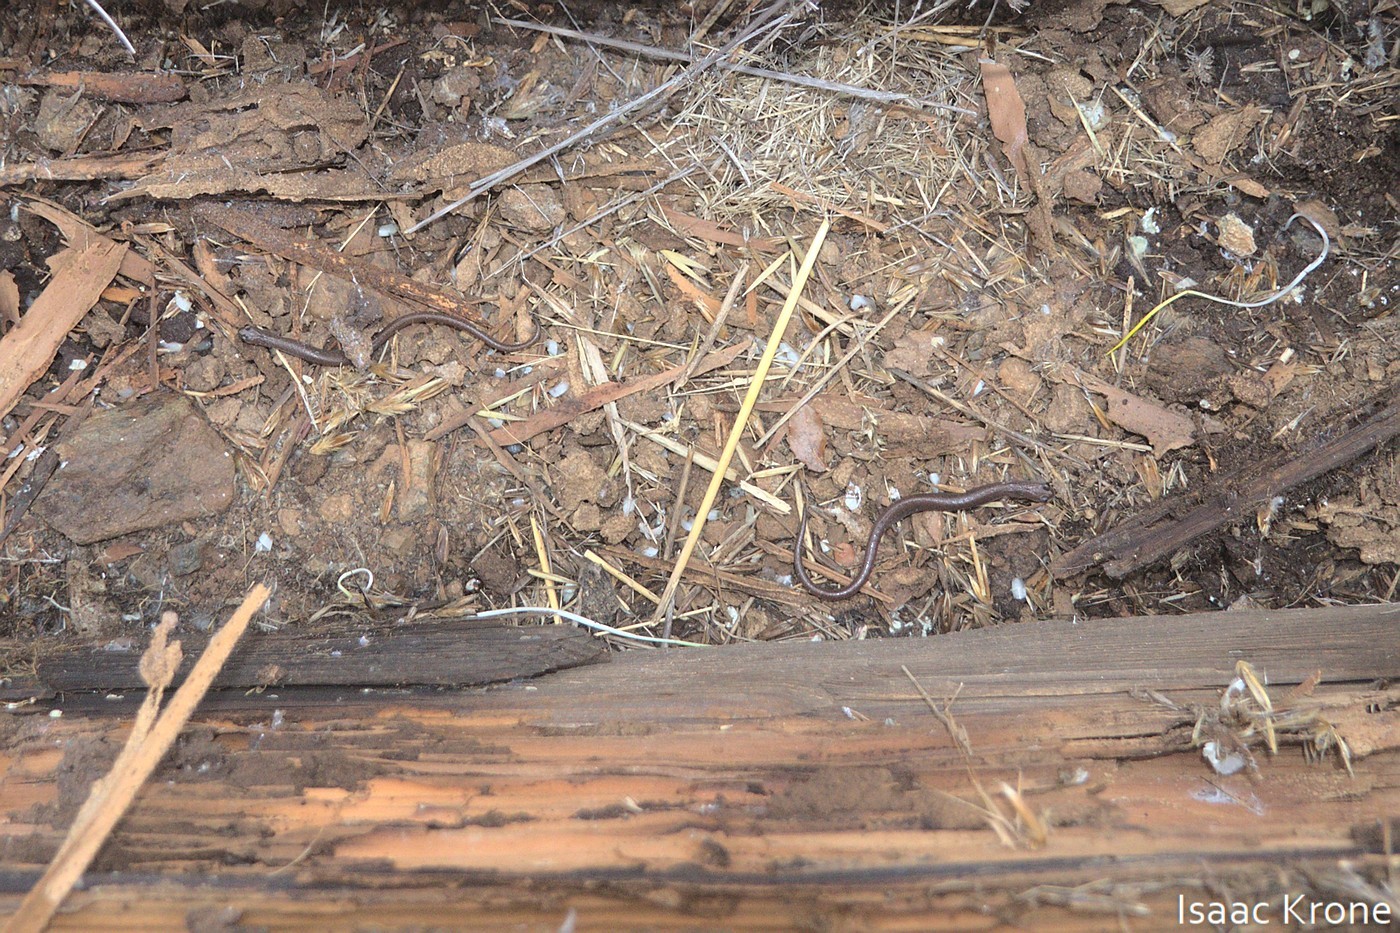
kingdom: Animalia
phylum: Chordata
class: Amphibia
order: Caudata
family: Plethodontidae
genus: Batrachoseps
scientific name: Batrachoseps major
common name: Garden slender salamander
